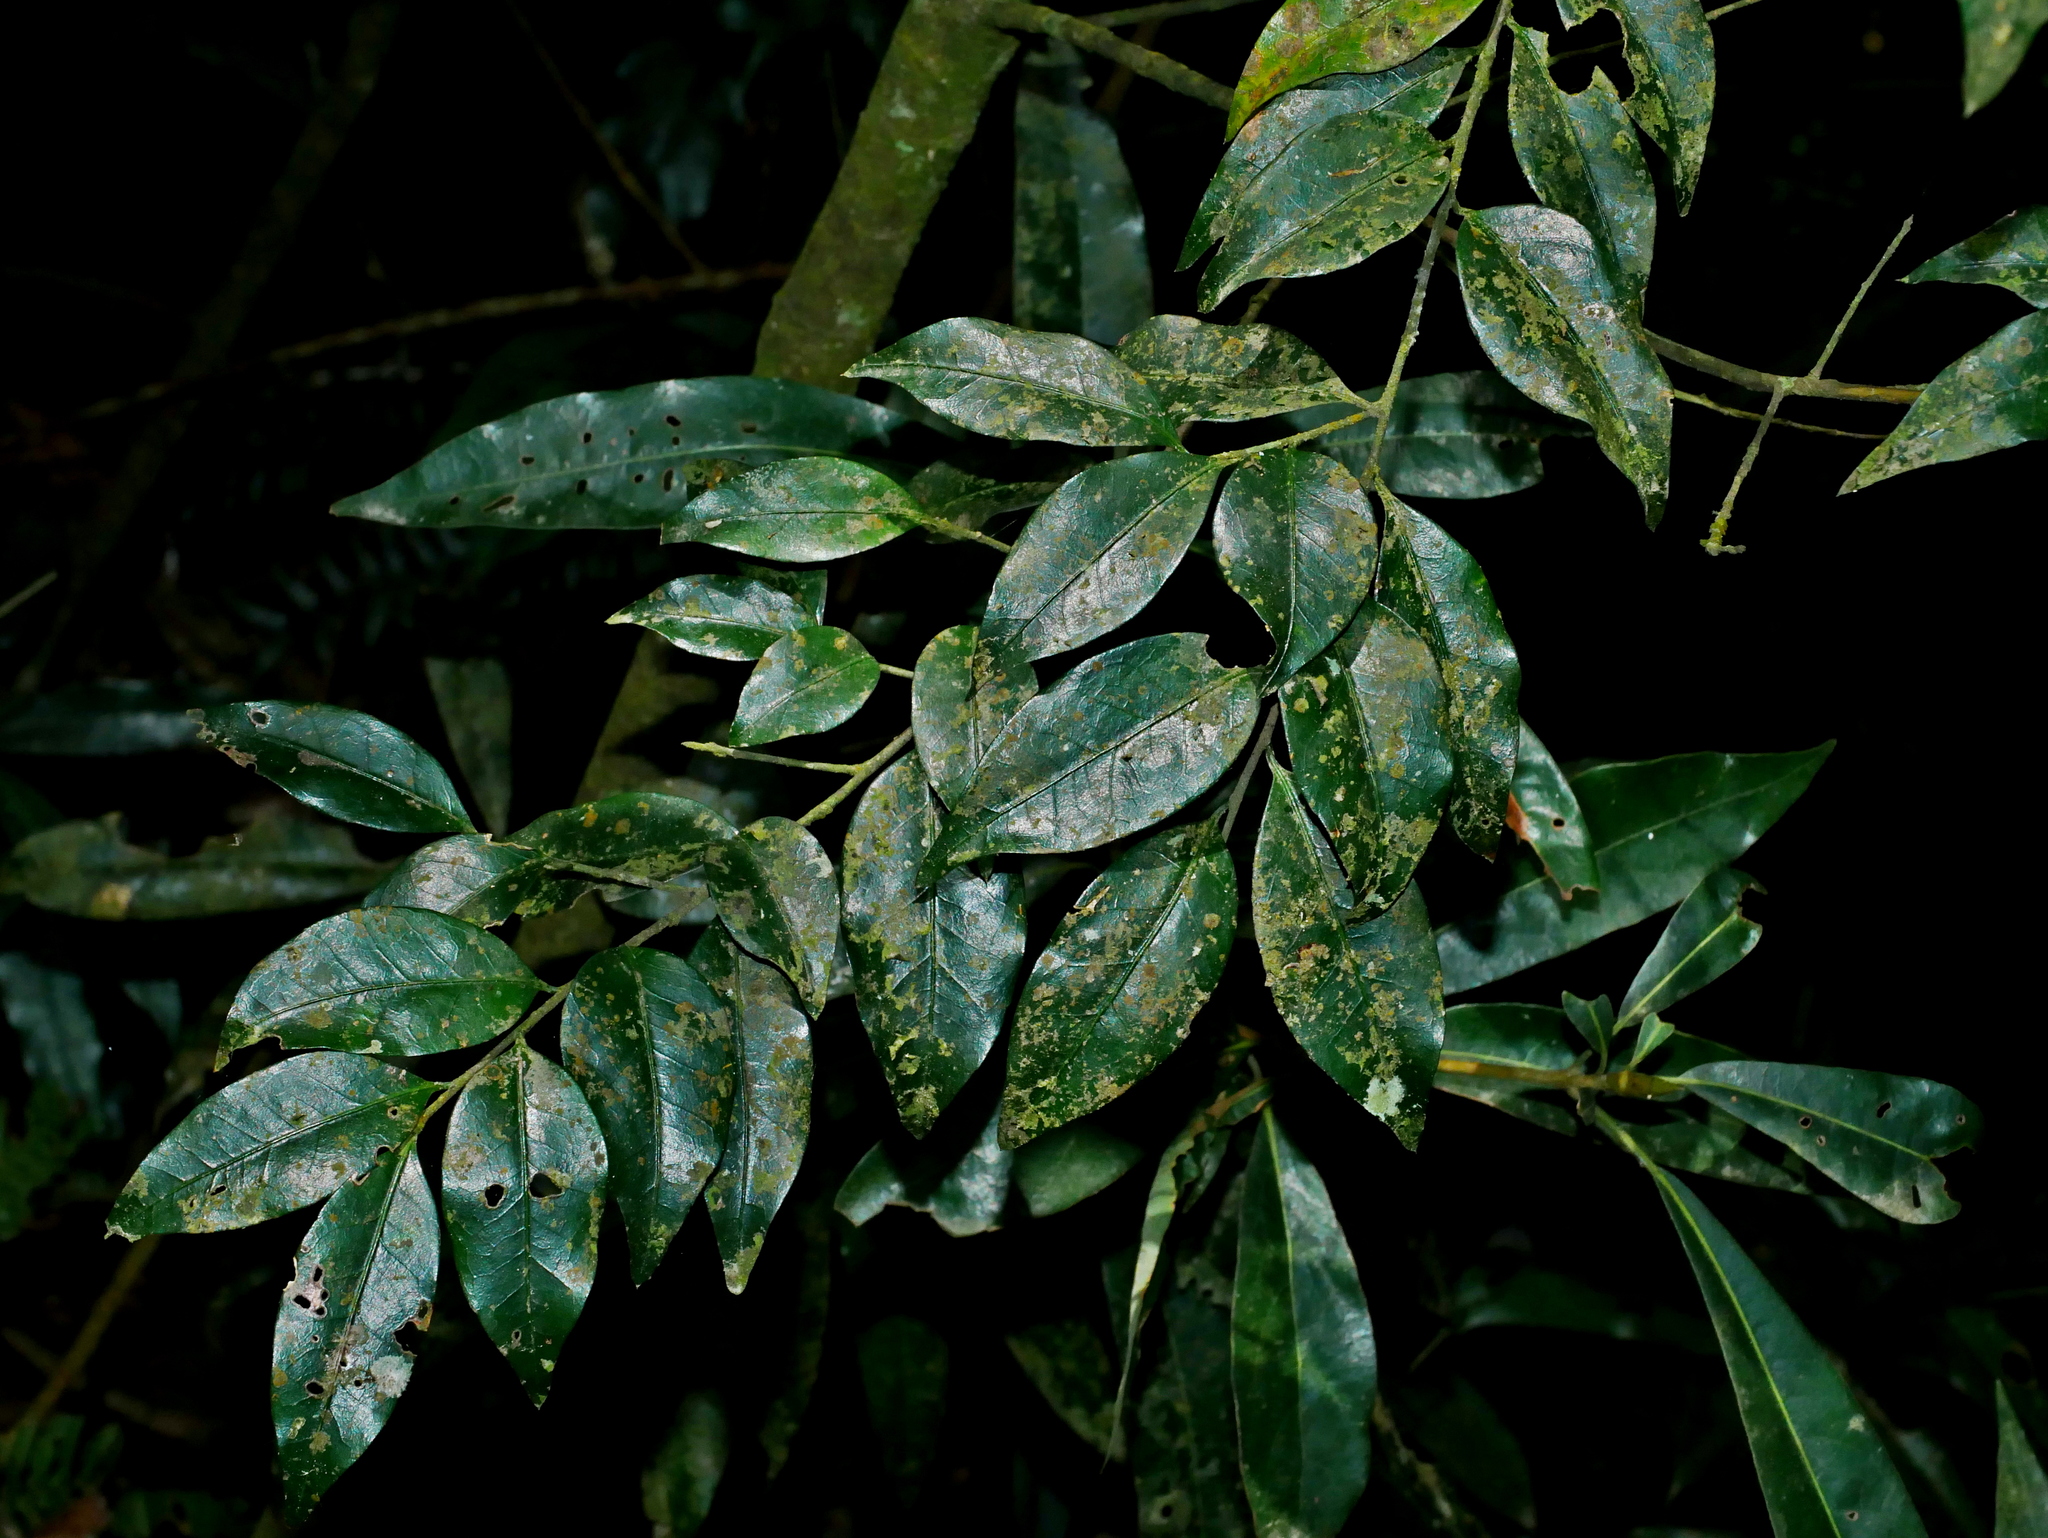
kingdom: Plantae
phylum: Tracheophyta
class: Magnoliopsida
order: Ericales
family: Symplocaceae
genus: Symplocos
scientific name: Symplocos anomala
